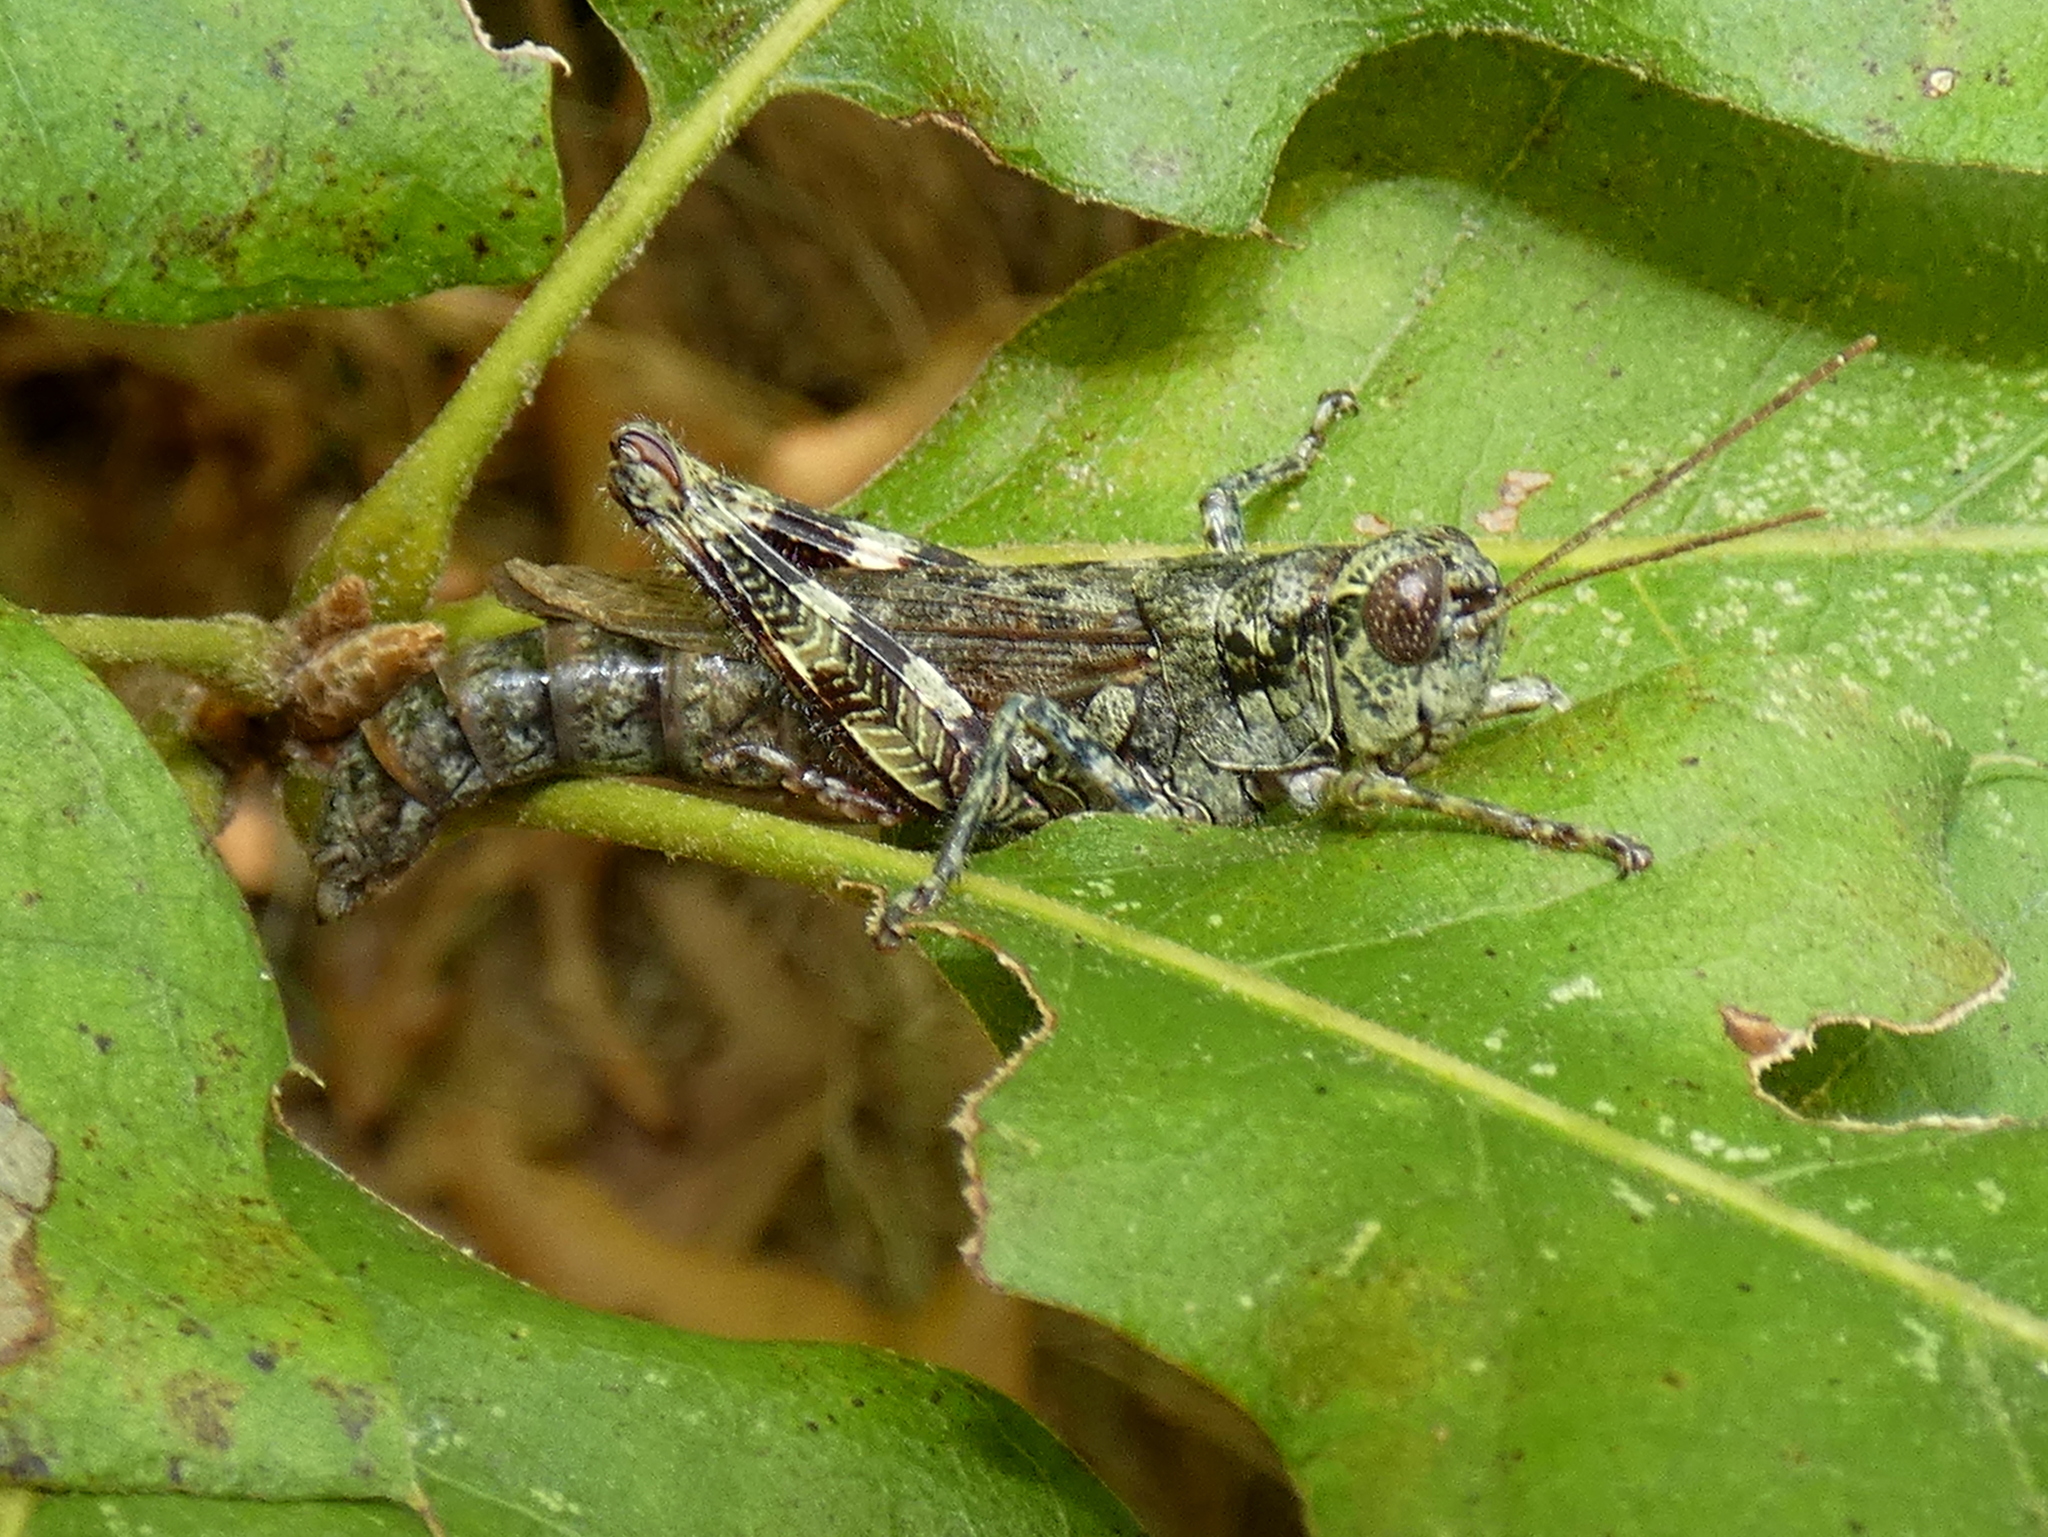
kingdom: Animalia
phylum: Arthropoda
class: Insecta
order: Orthoptera
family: Acrididae
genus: Melanoplus
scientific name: Melanoplus punctulatus
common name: Pine-tree spur-throat grasshopper
